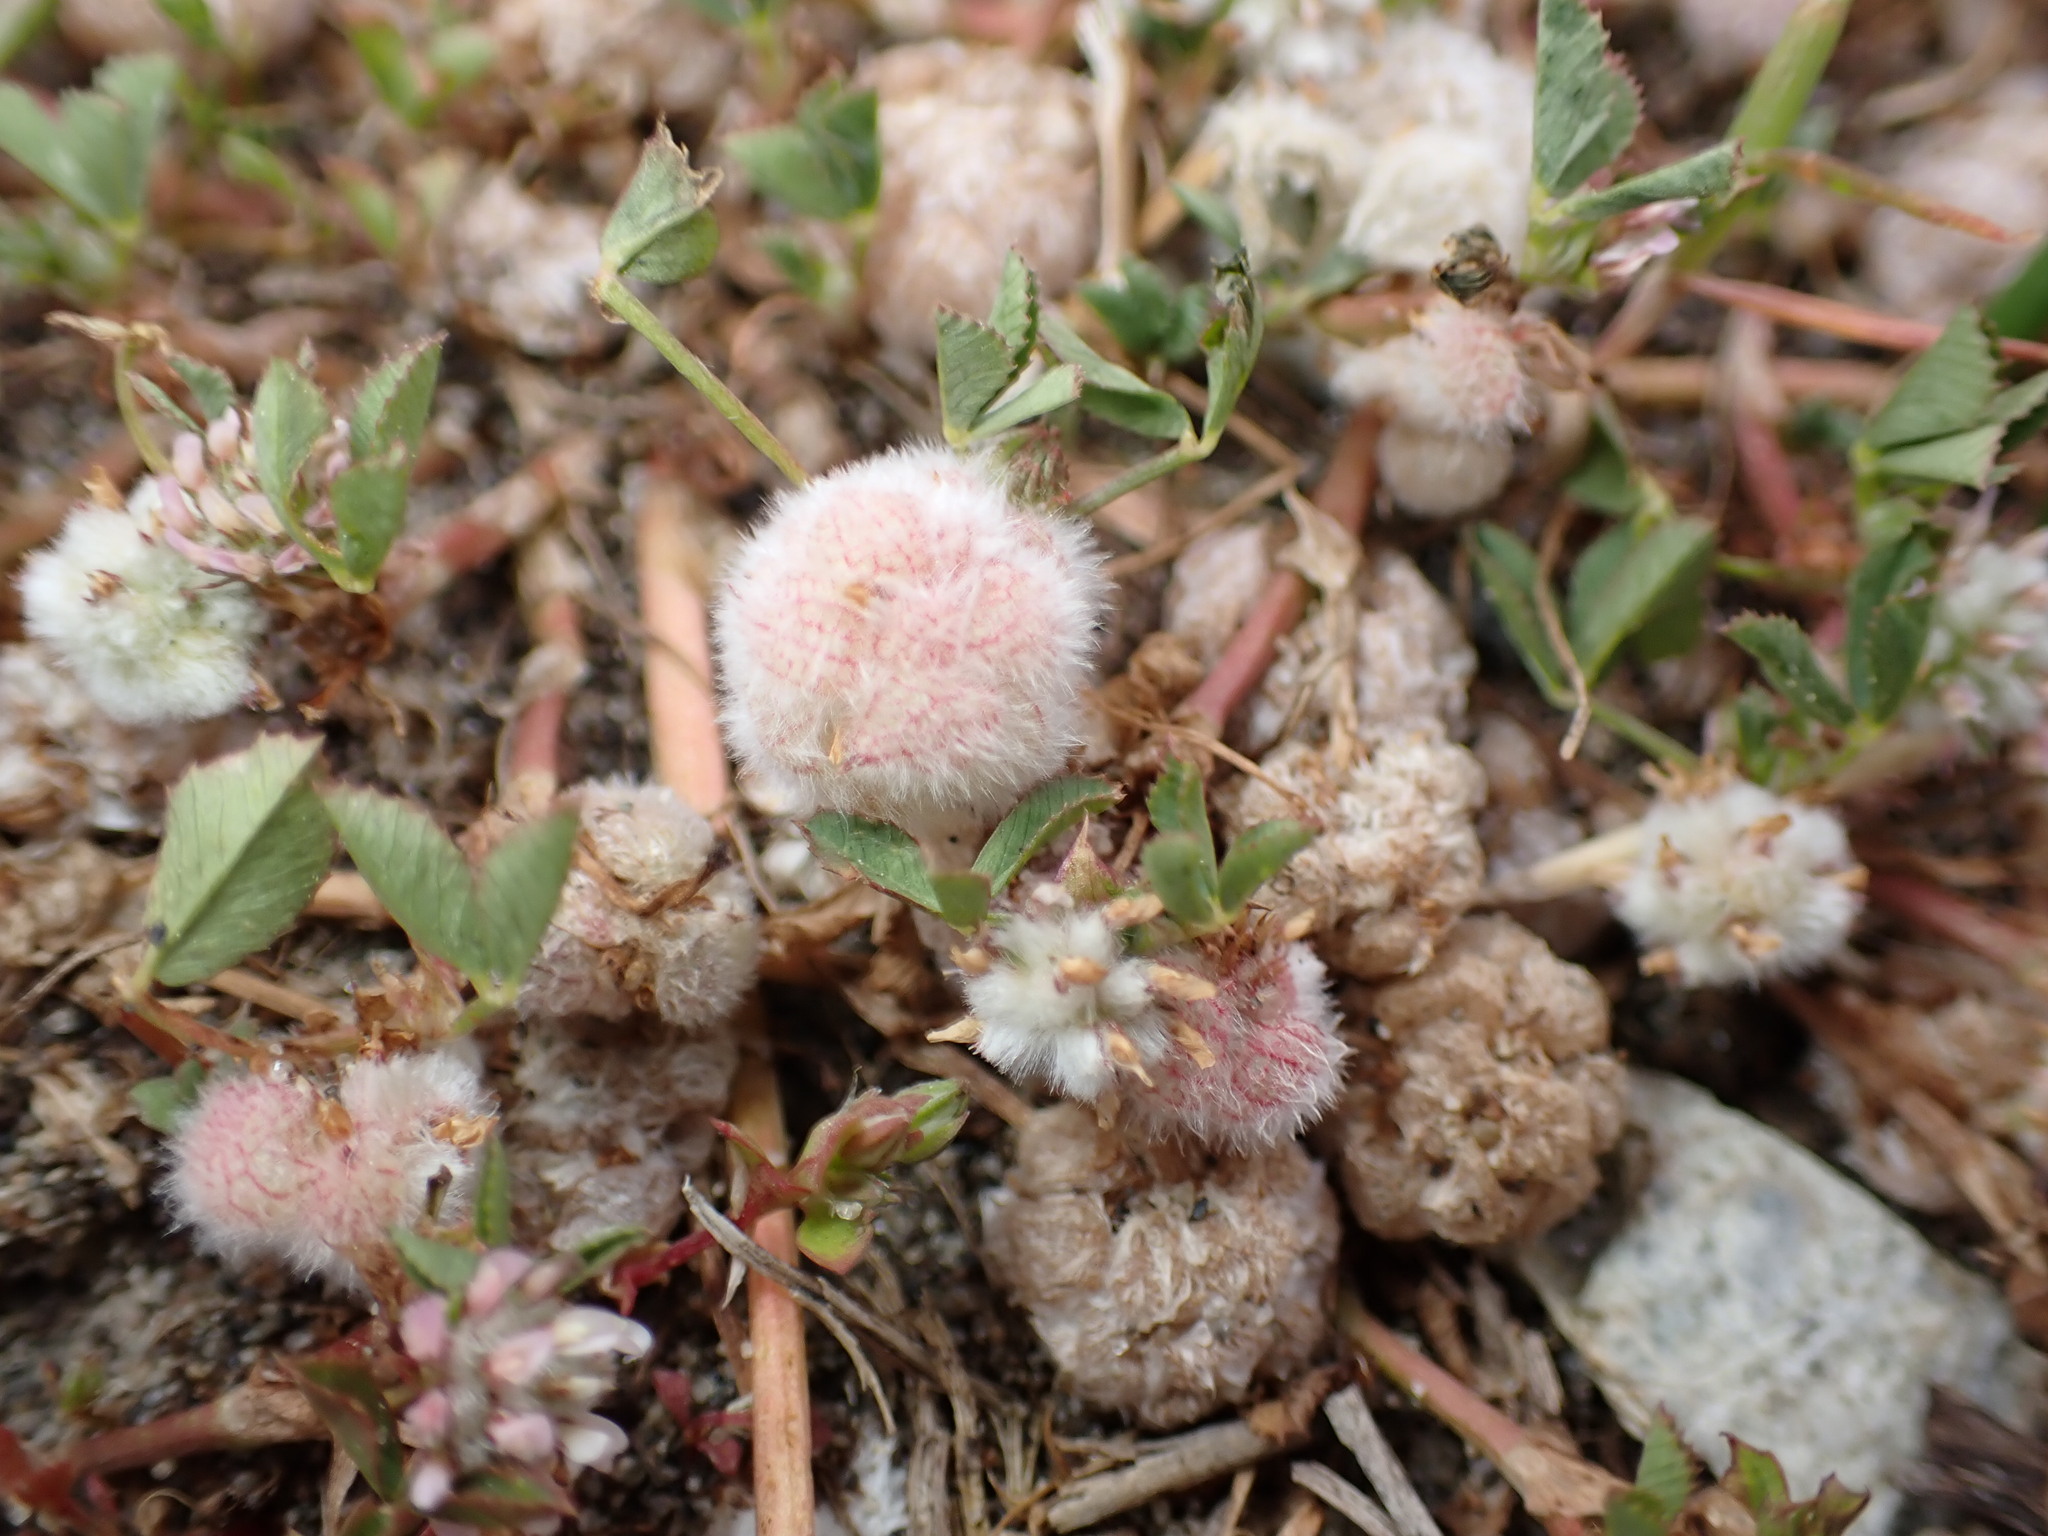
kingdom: Plantae
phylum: Tracheophyta
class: Magnoliopsida
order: Fabales
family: Fabaceae
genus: Trifolium
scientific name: Trifolium tomentosum
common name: Woolly clover
